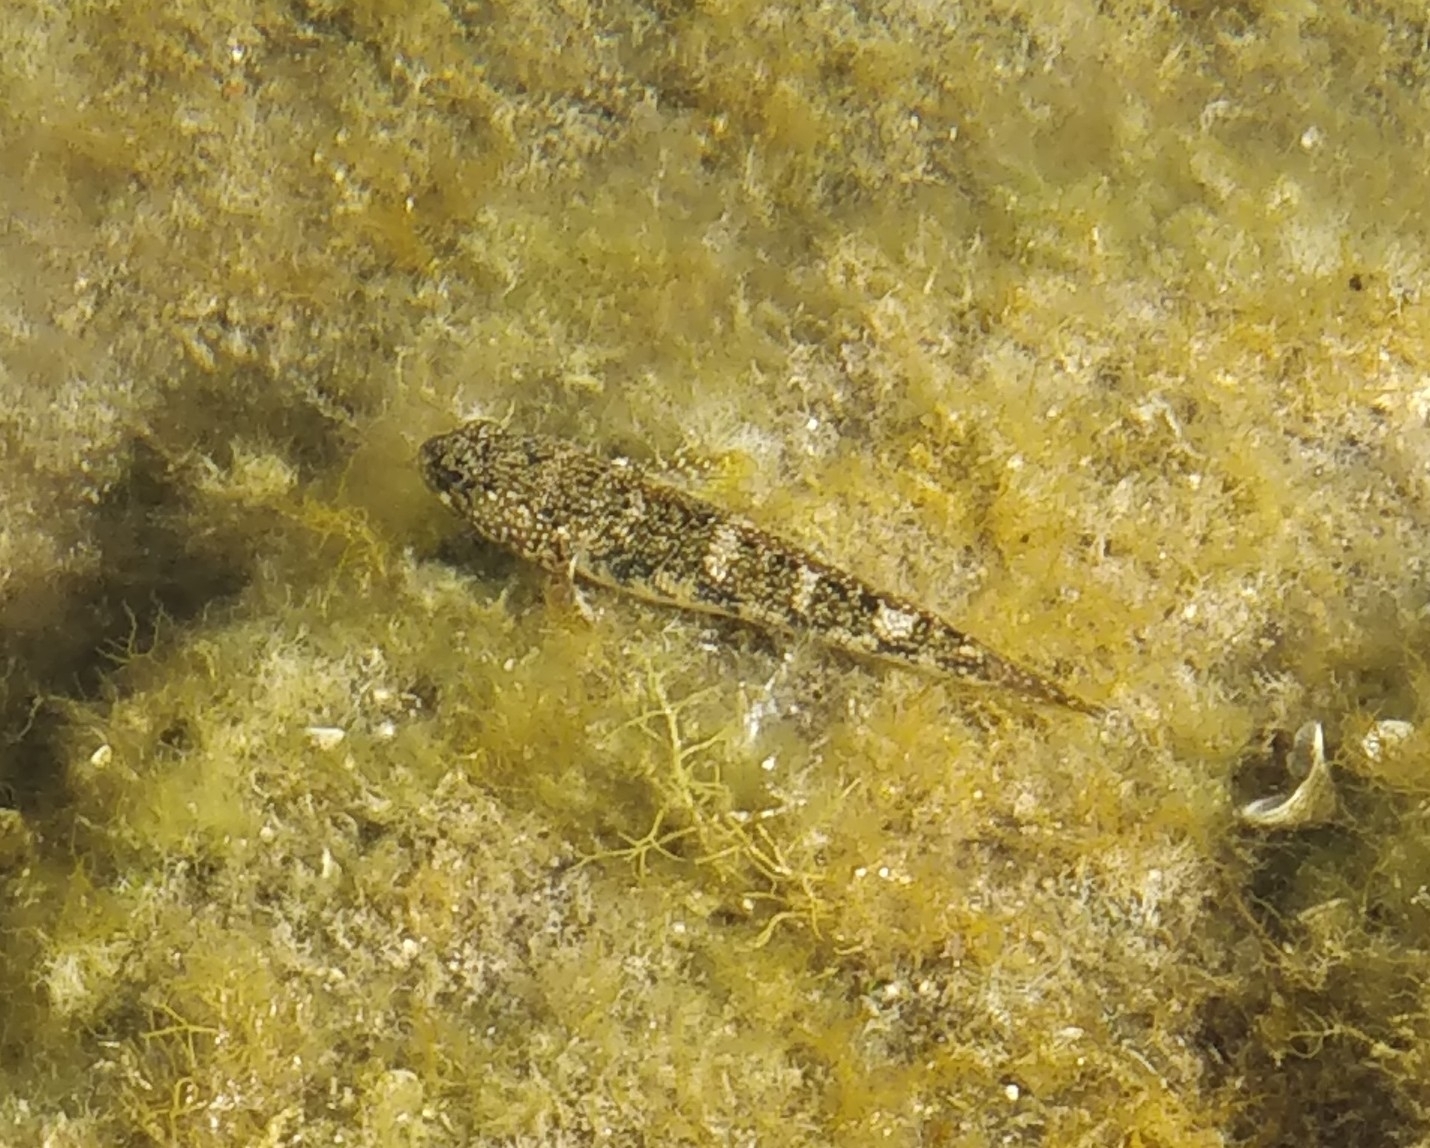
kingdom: Animalia
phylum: Chordata
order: Perciformes
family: Gobiidae
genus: Mauligobius
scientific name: Mauligobius maderensis
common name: Rock goby
